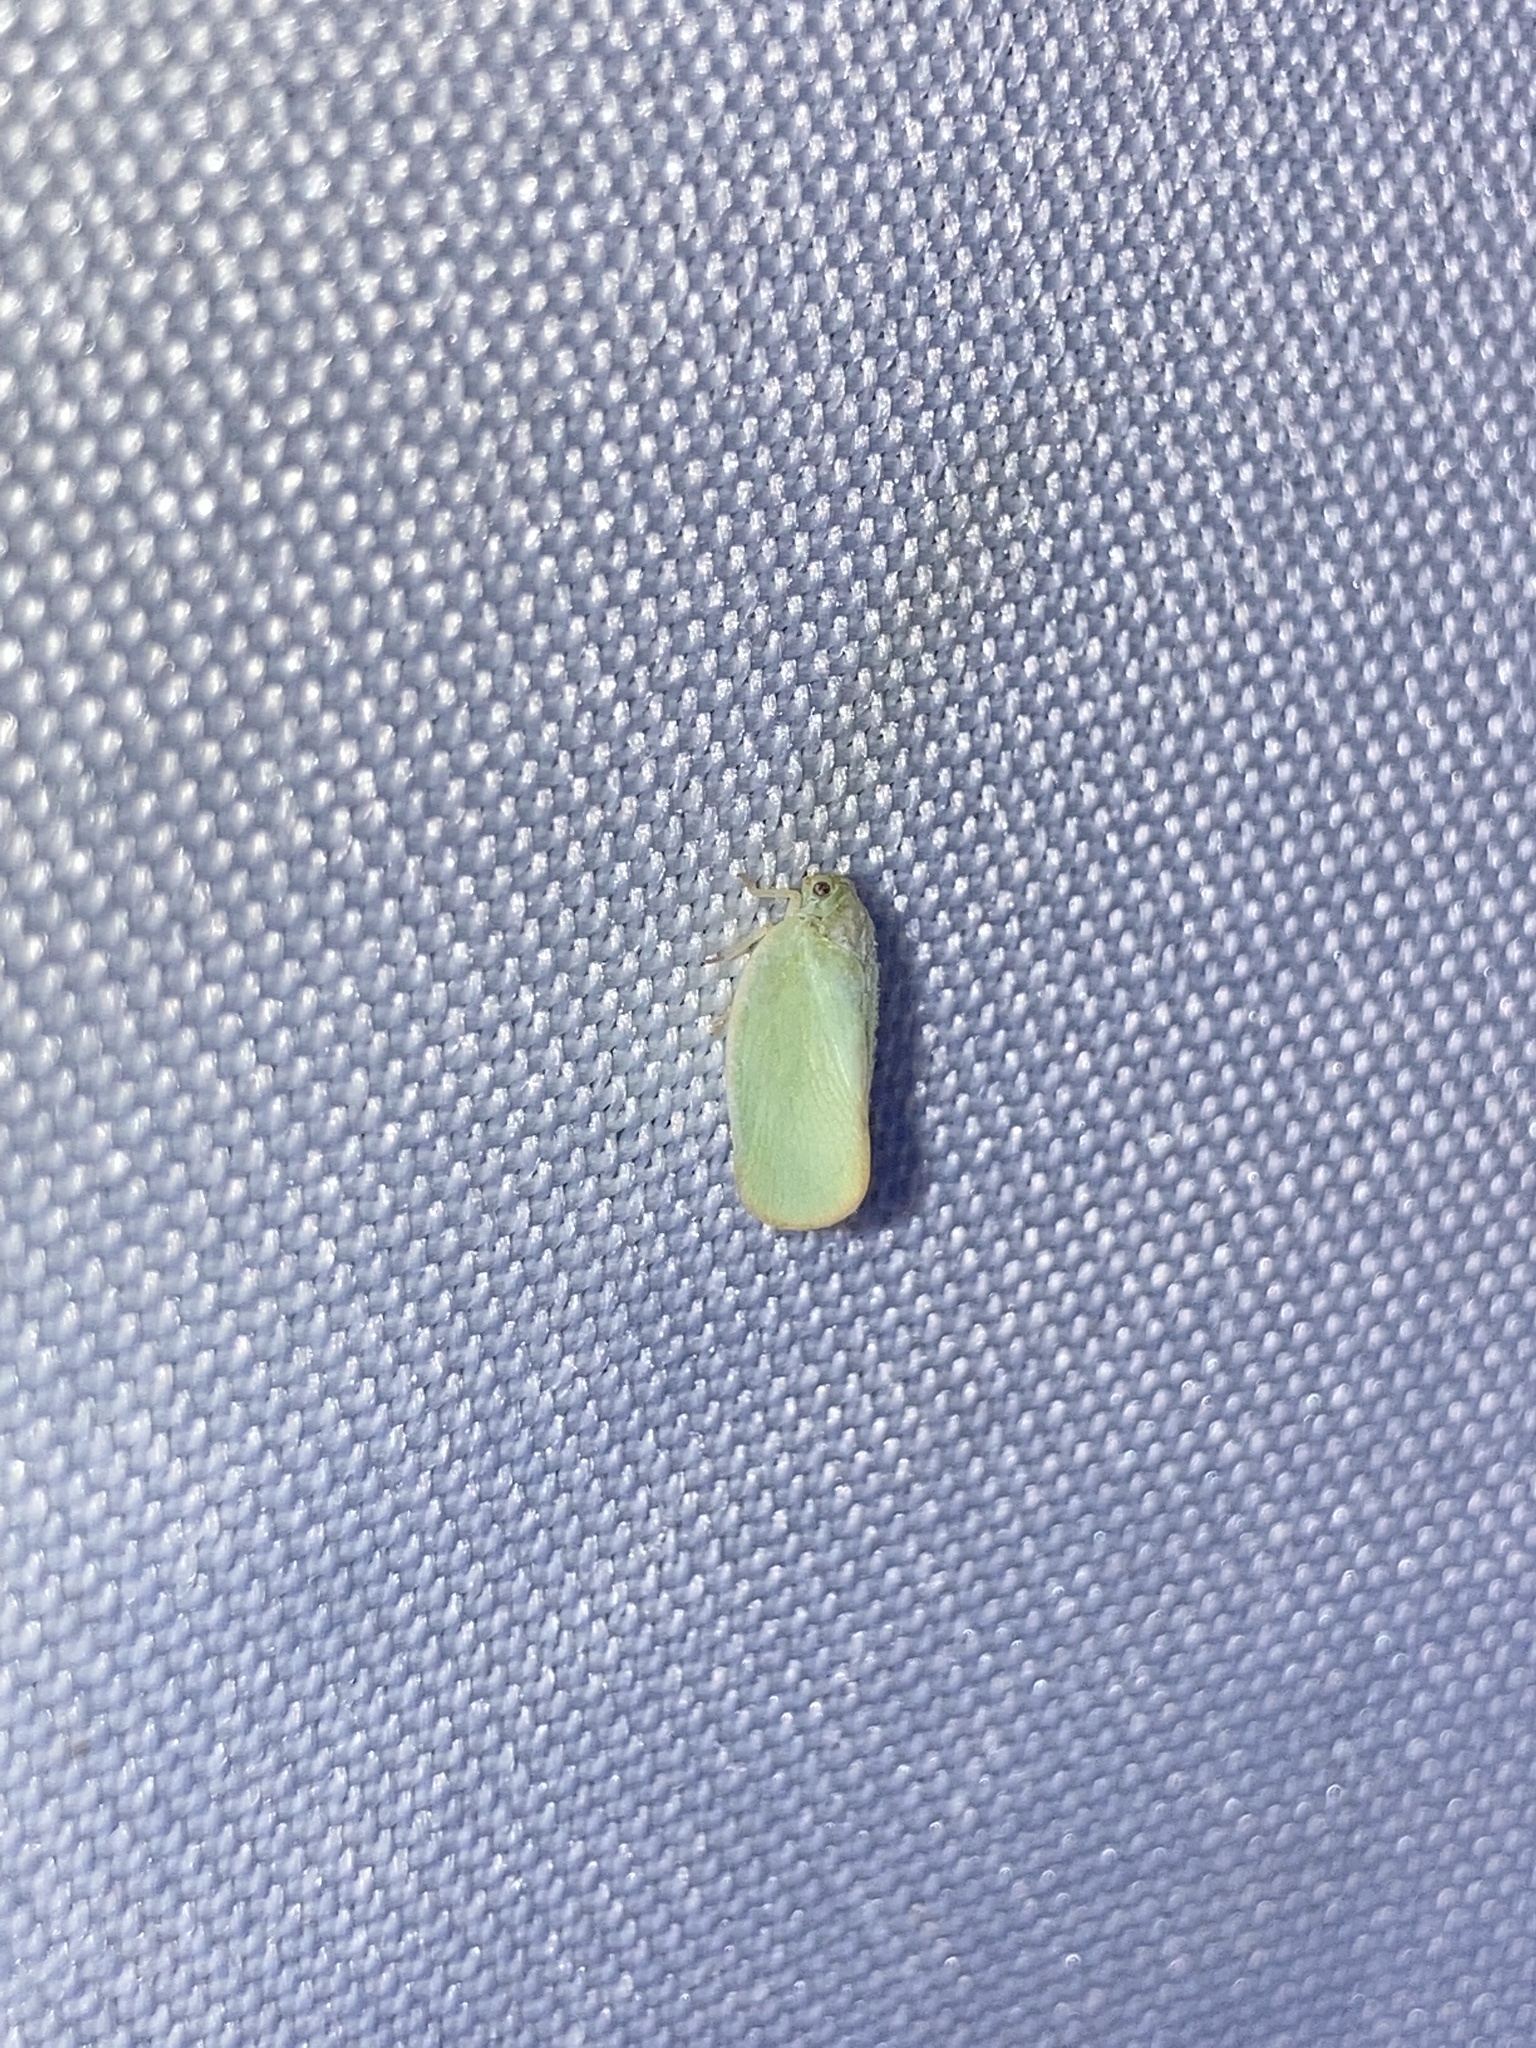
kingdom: Animalia
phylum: Arthropoda
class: Insecta
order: Hemiptera
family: Flatidae
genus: Ormenoides
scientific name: Ormenoides venusta
